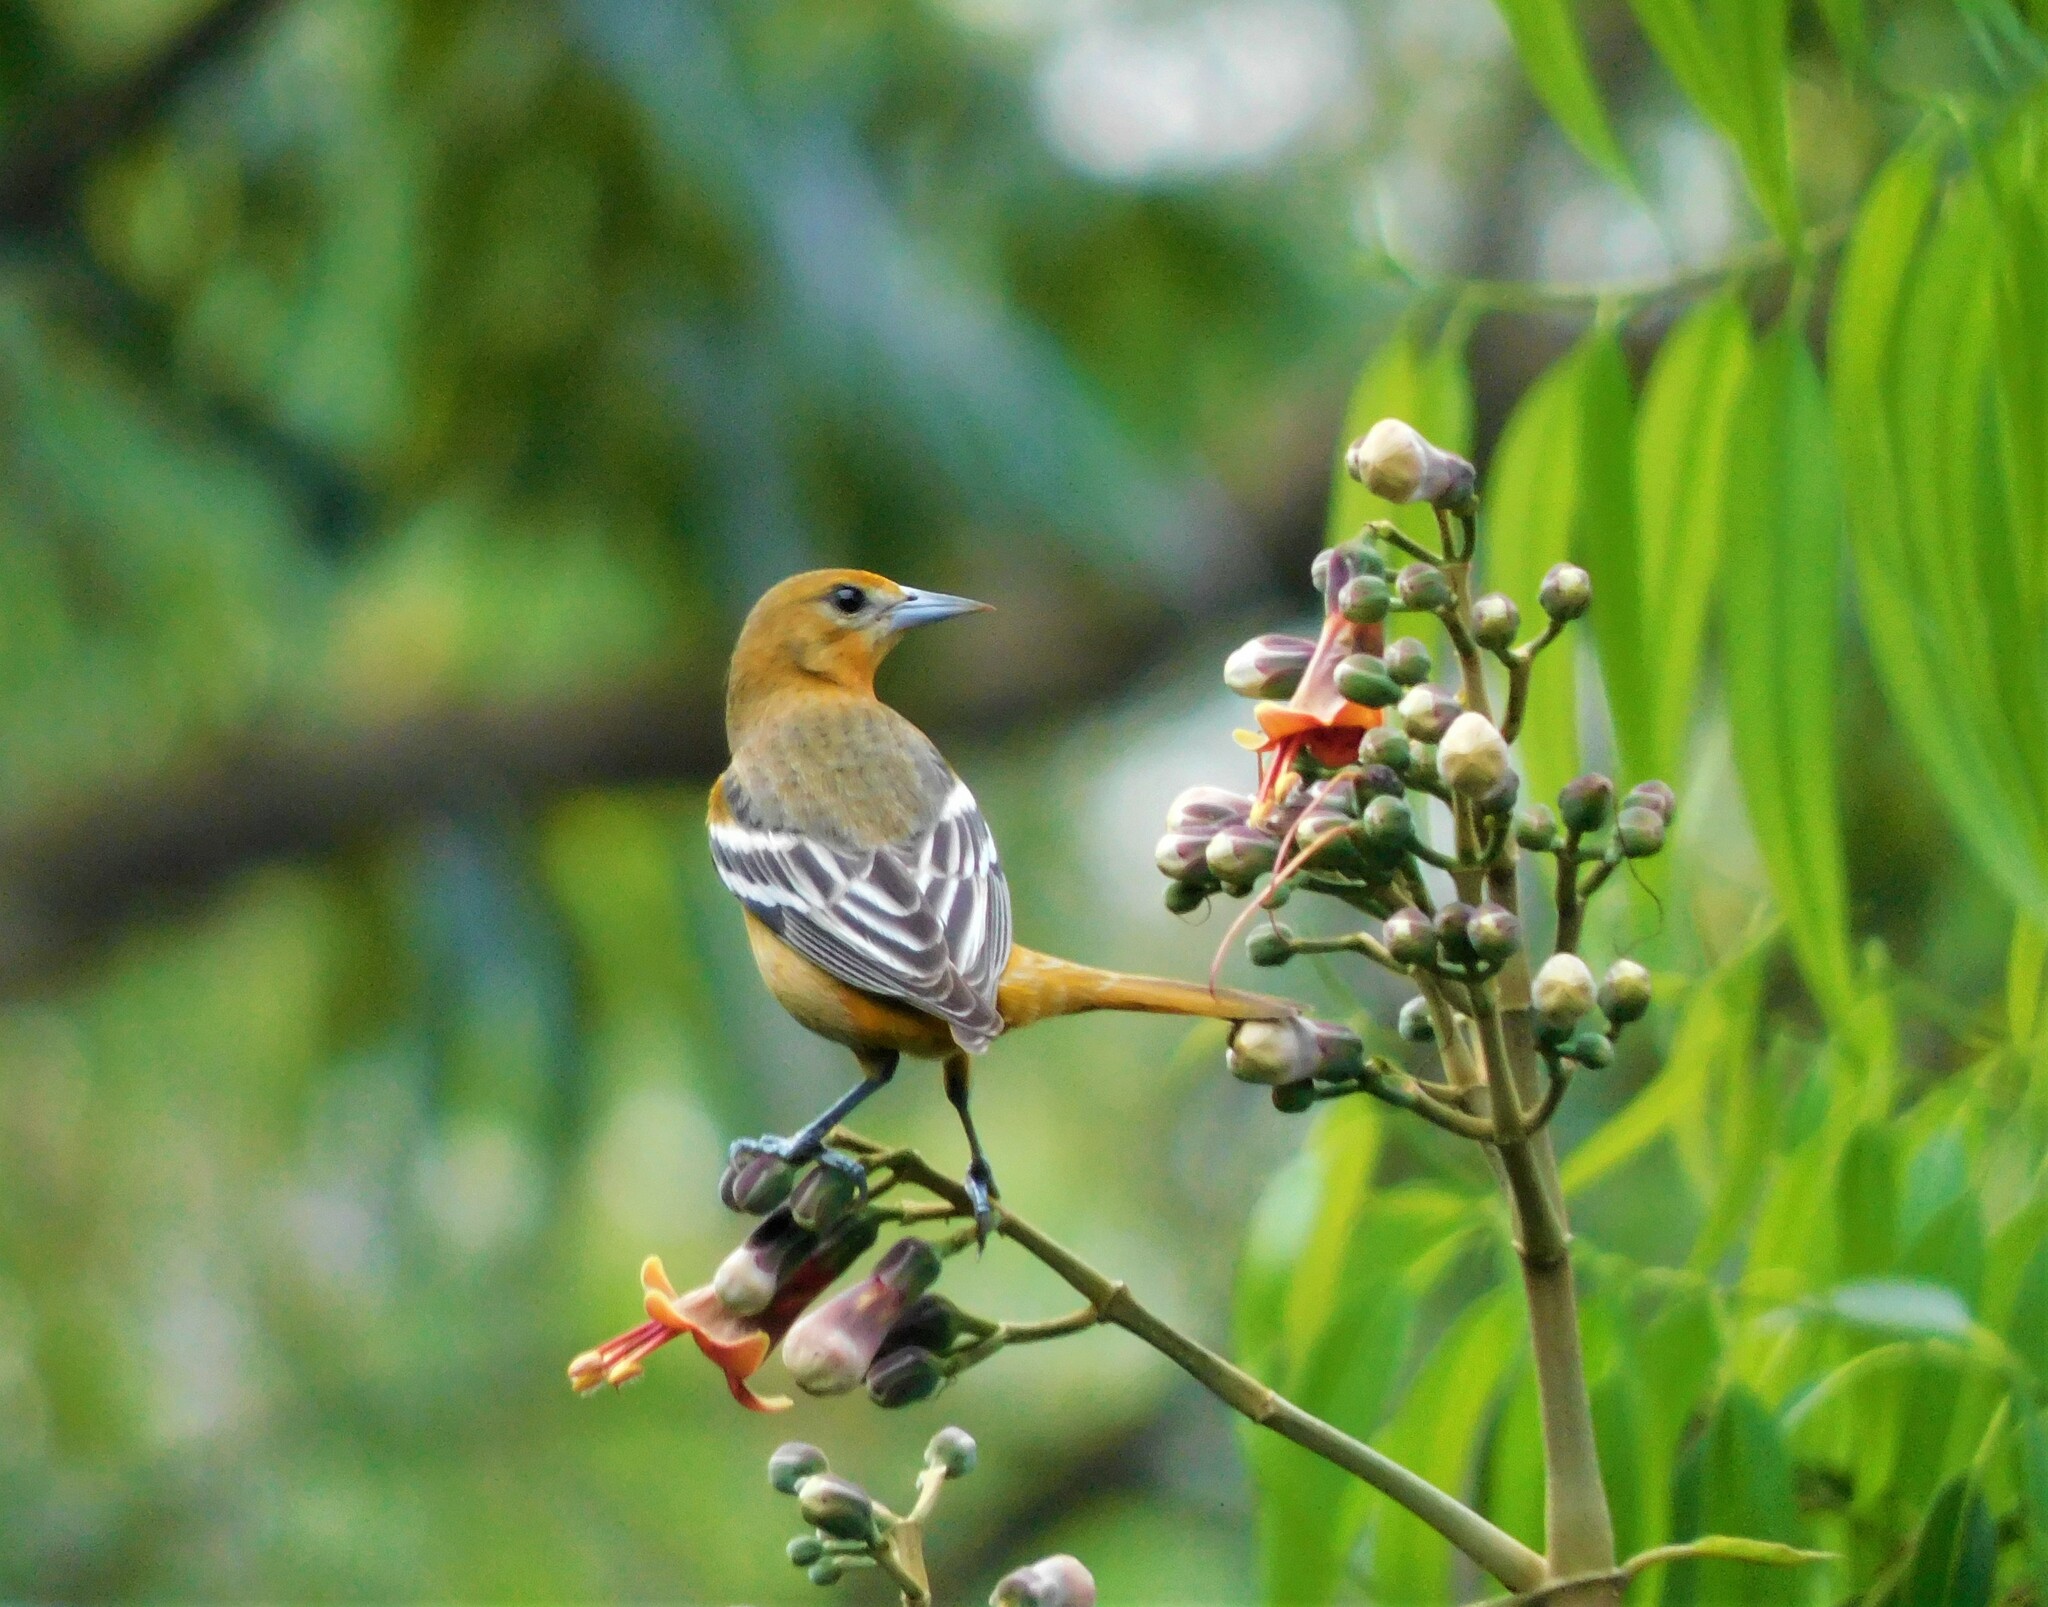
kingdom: Animalia
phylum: Chordata
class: Aves
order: Passeriformes
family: Icteridae
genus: Icterus
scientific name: Icterus galbula
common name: Baltimore oriole
